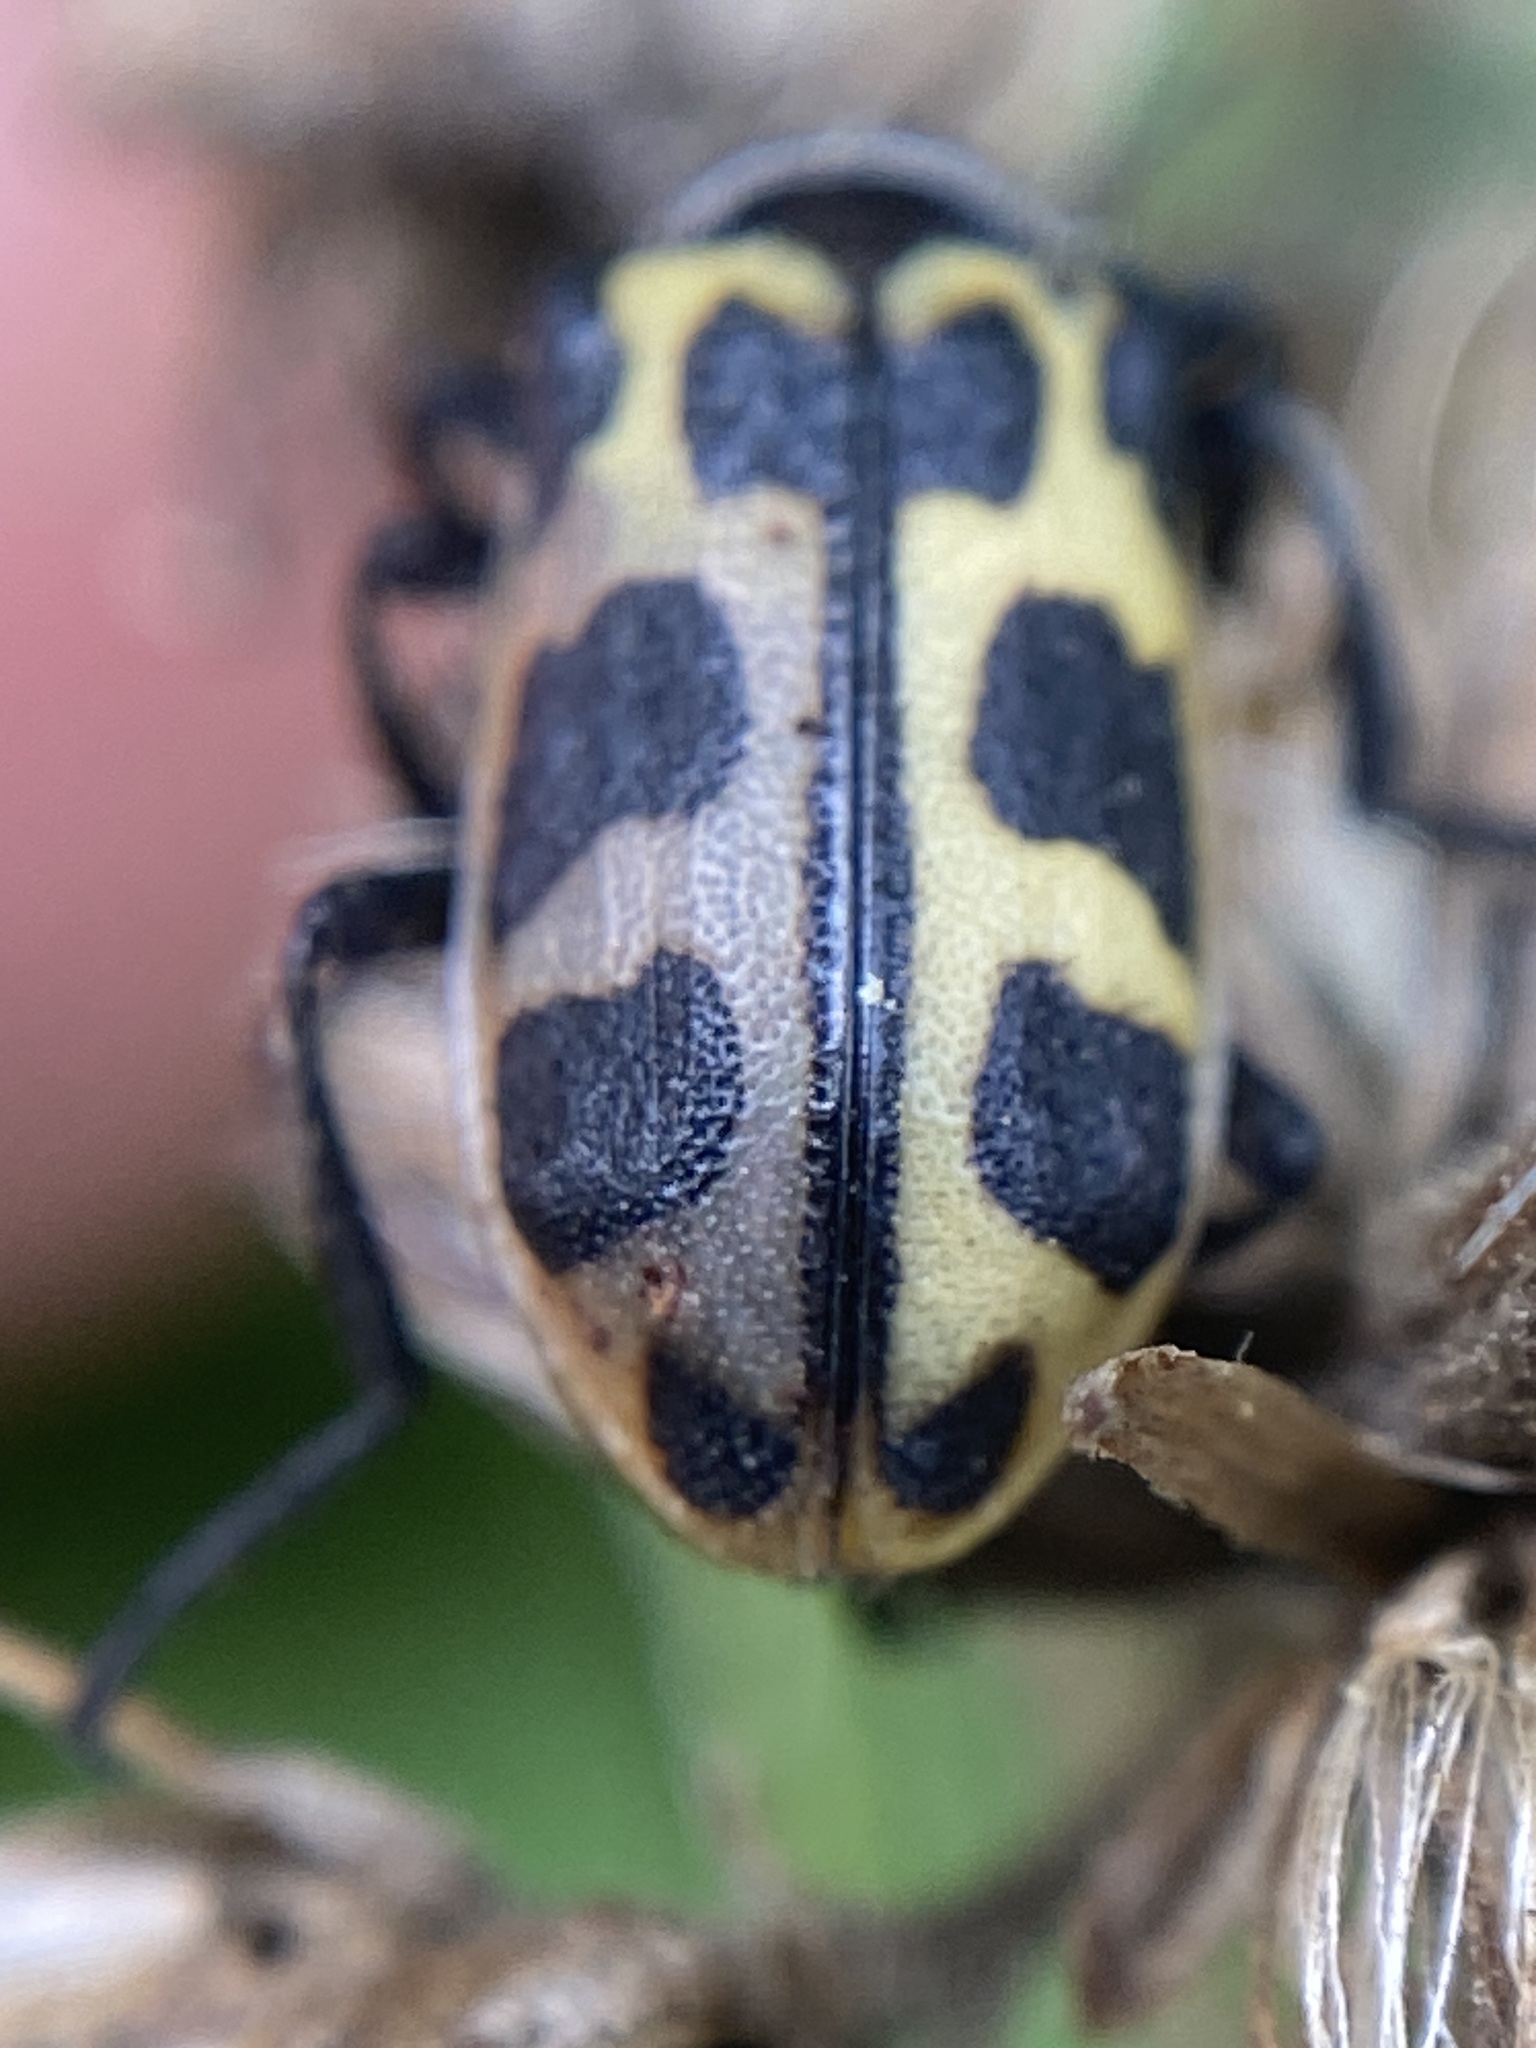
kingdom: Animalia
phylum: Arthropoda
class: Insecta
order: Coleoptera
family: Melyridae
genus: Astylus
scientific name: Astylus atromaculatus
